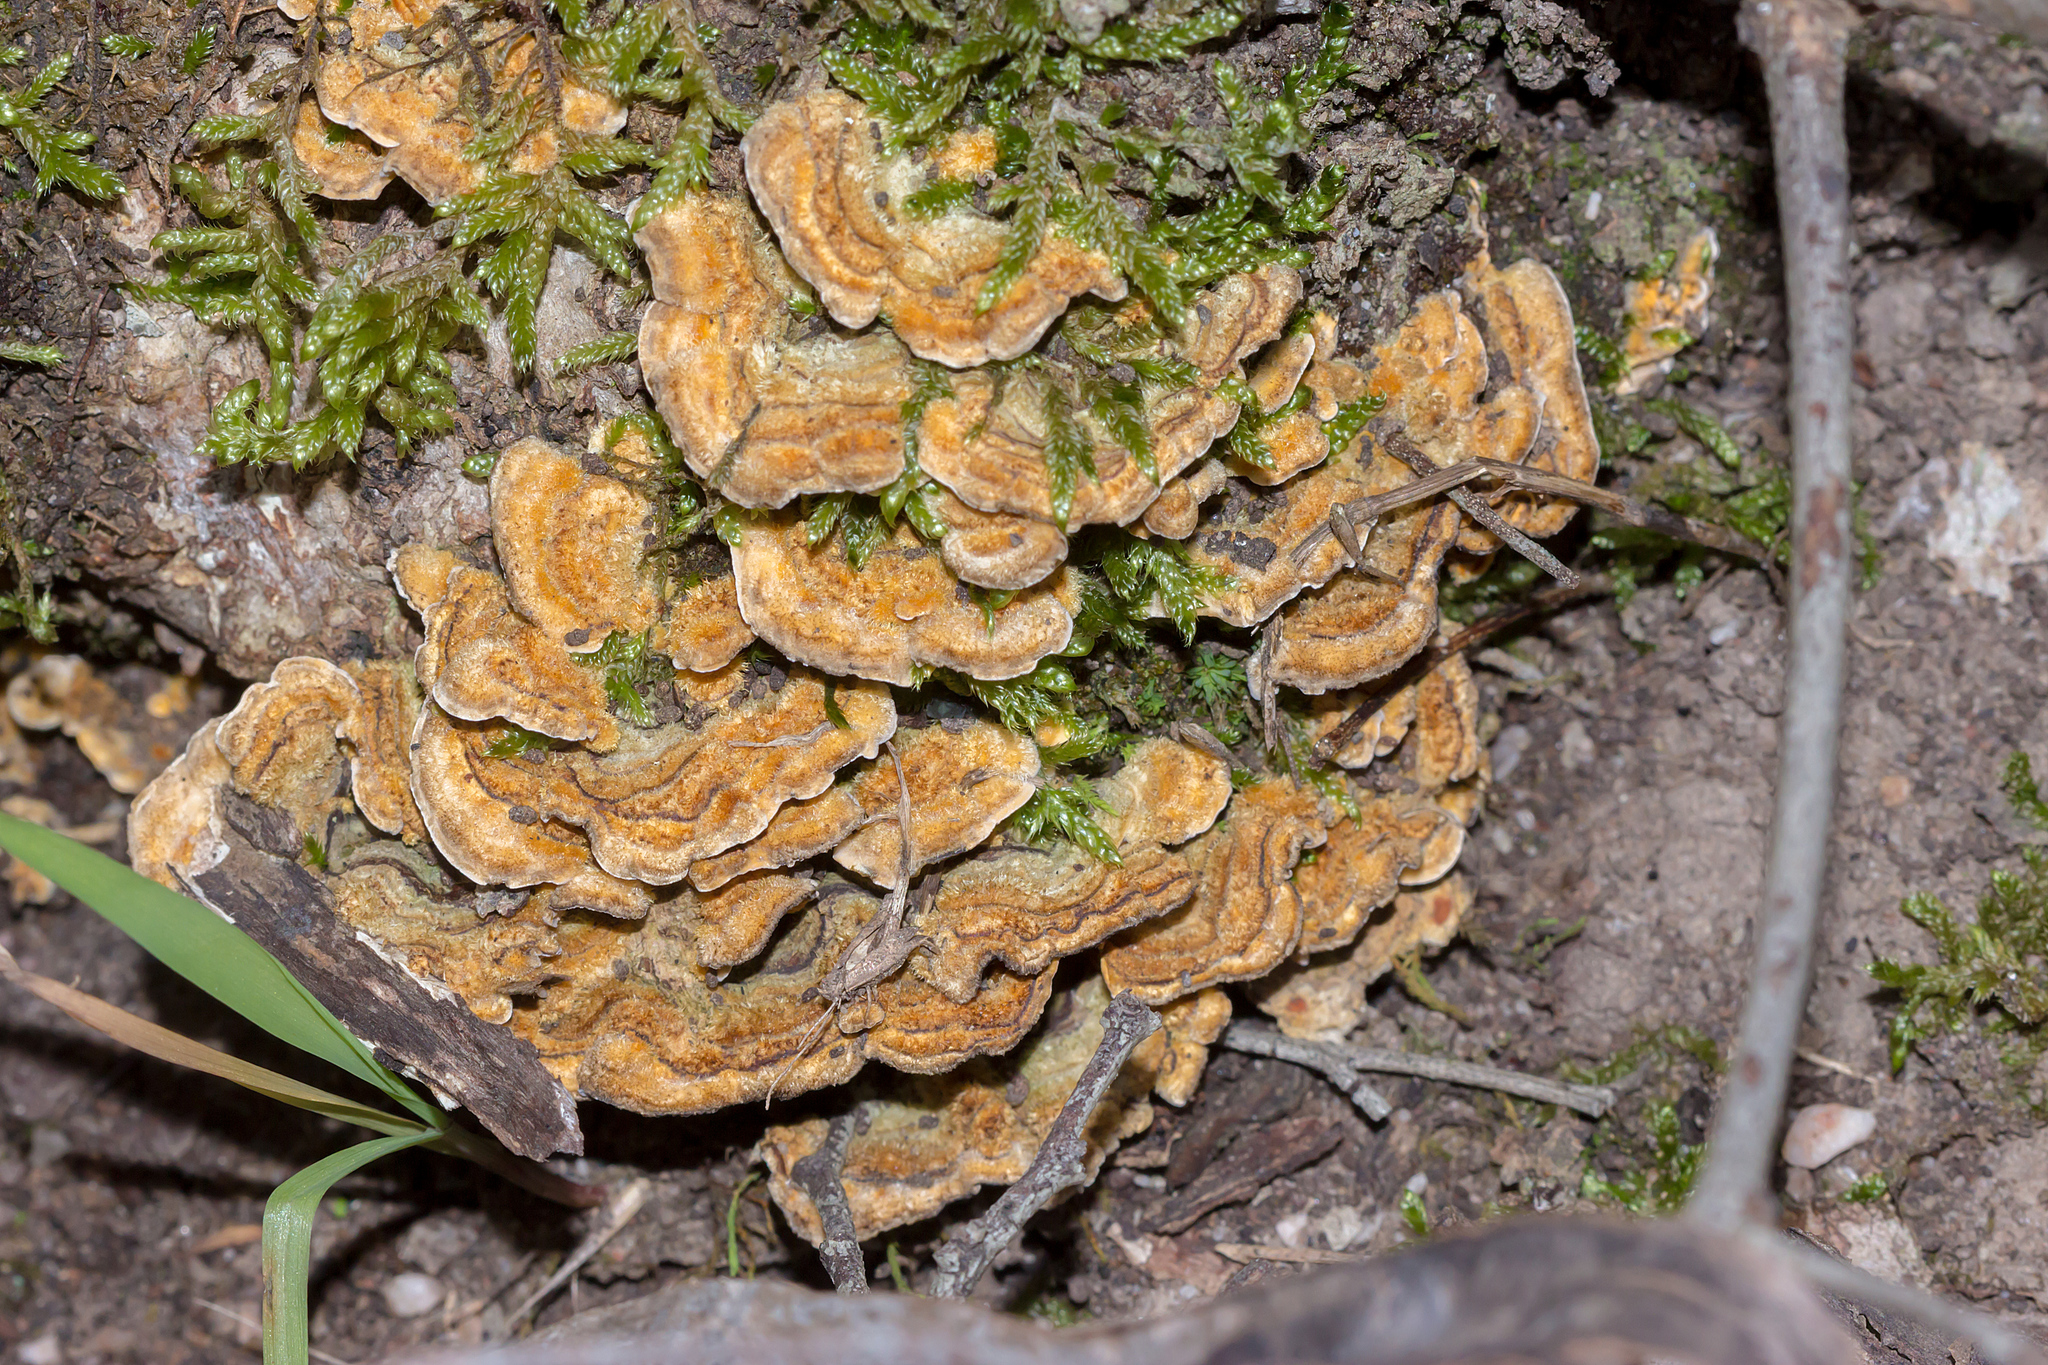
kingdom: Fungi
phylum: Basidiomycota
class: Agaricomycetes
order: Russulales
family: Stereaceae
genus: Stereum
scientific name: Stereum hirsutum
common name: Hairy curtain crust
